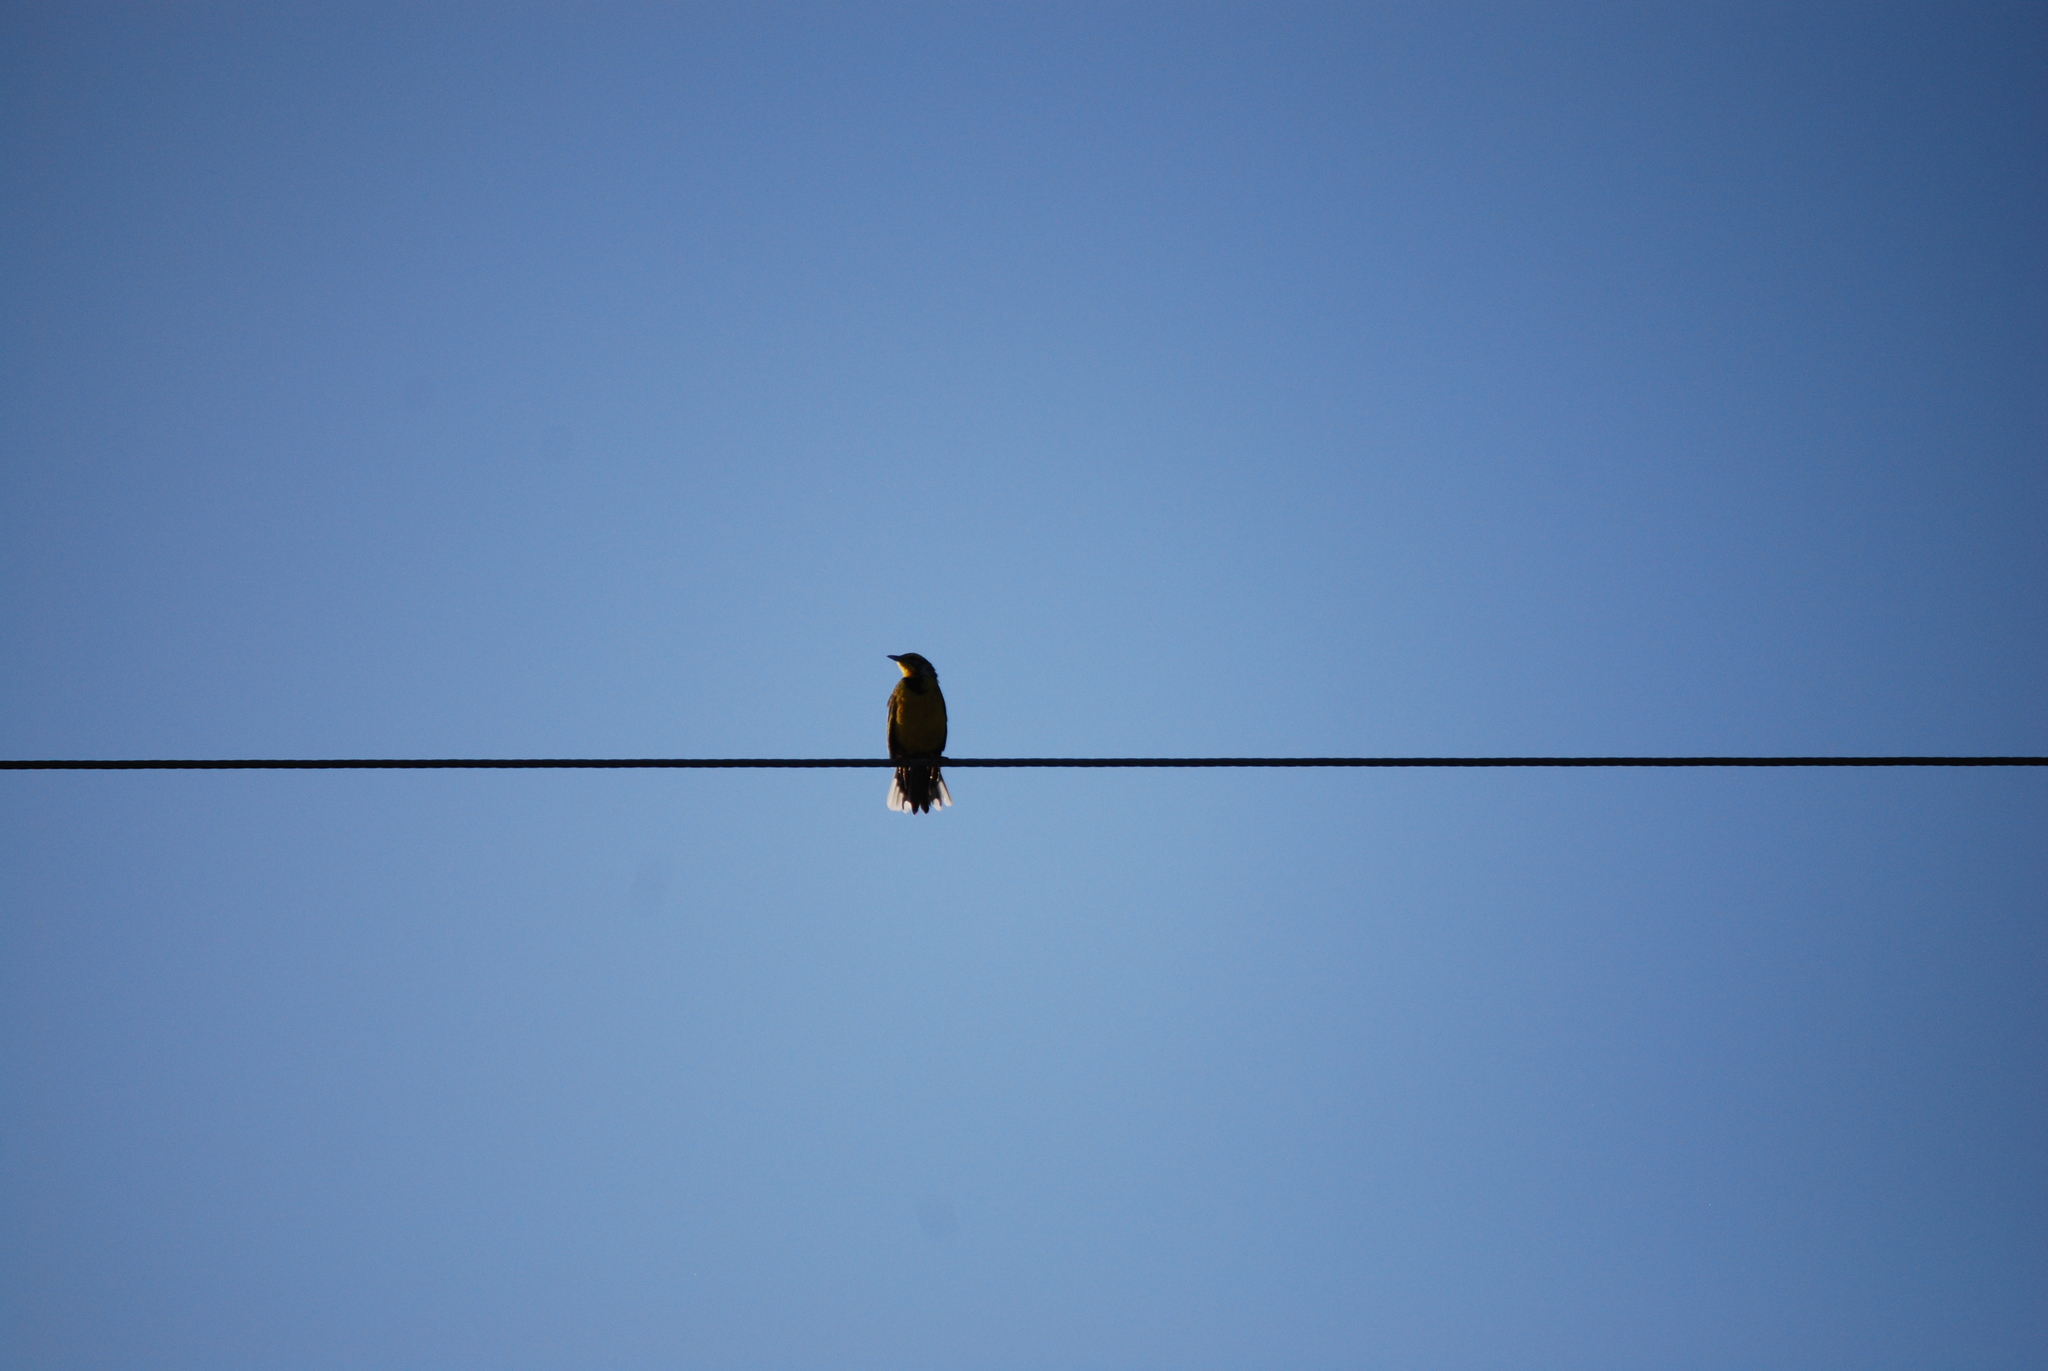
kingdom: Animalia
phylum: Chordata
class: Aves
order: Passeriformes
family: Motacillidae
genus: Macronyx
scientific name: Macronyx croceus
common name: Yellow-throated longclaw
